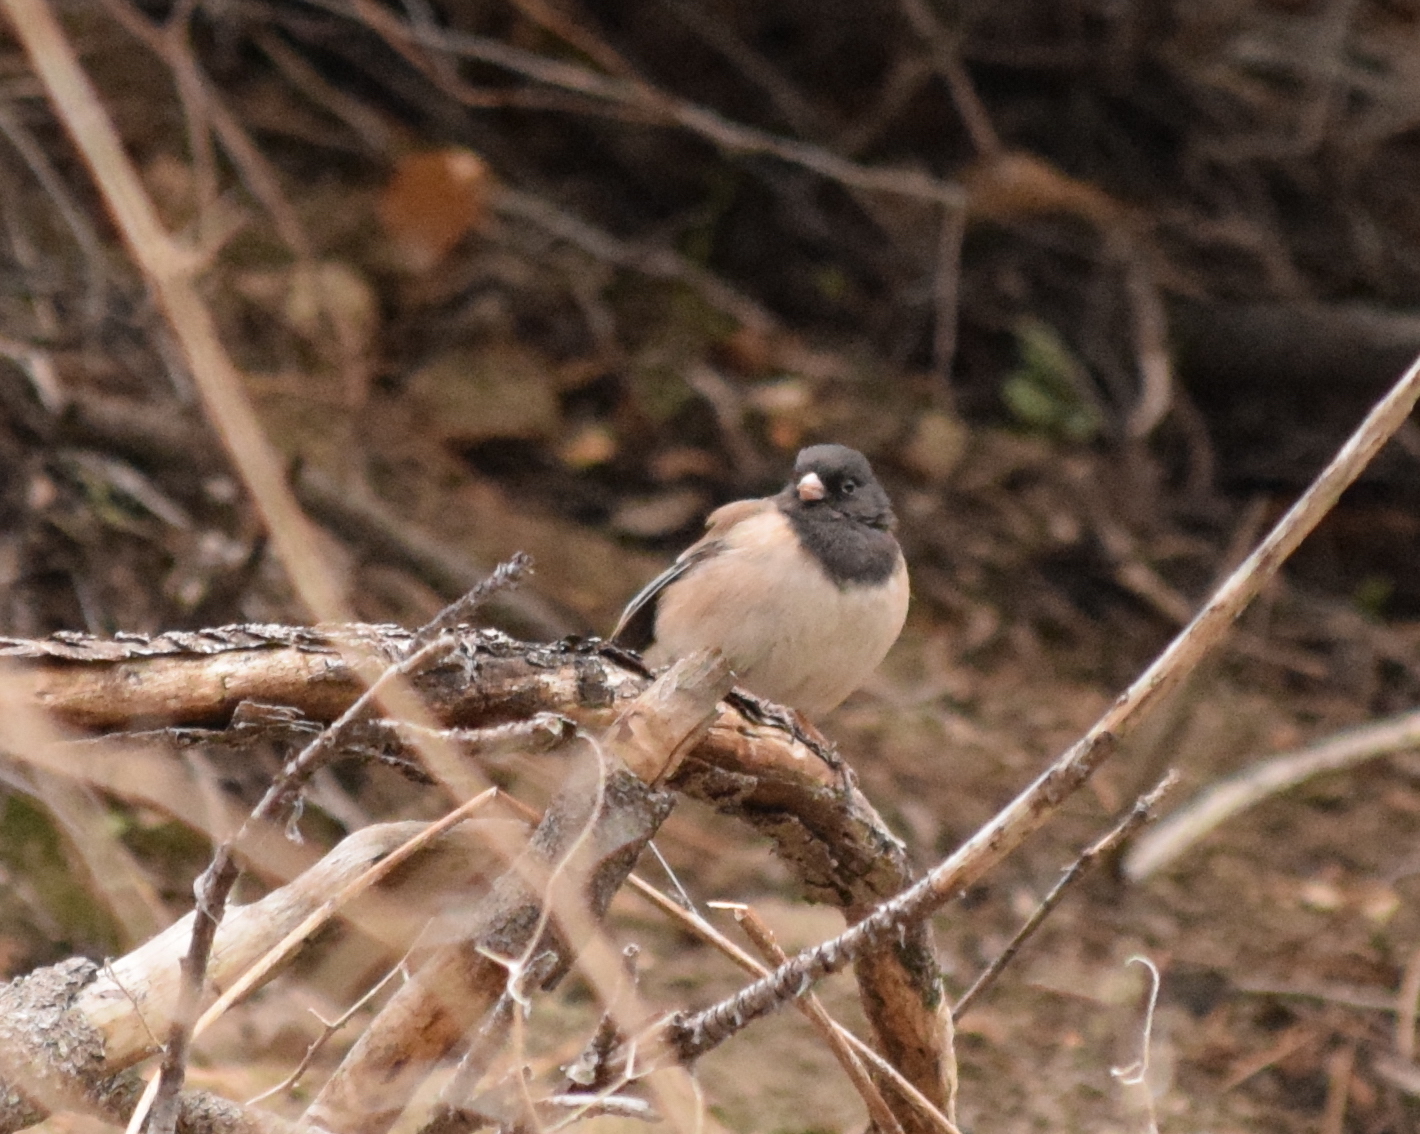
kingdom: Animalia
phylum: Chordata
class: Aves
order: Passeriformes
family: Passerellidae
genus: Junco
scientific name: Junco hyemalis
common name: Dark-eyed junco
